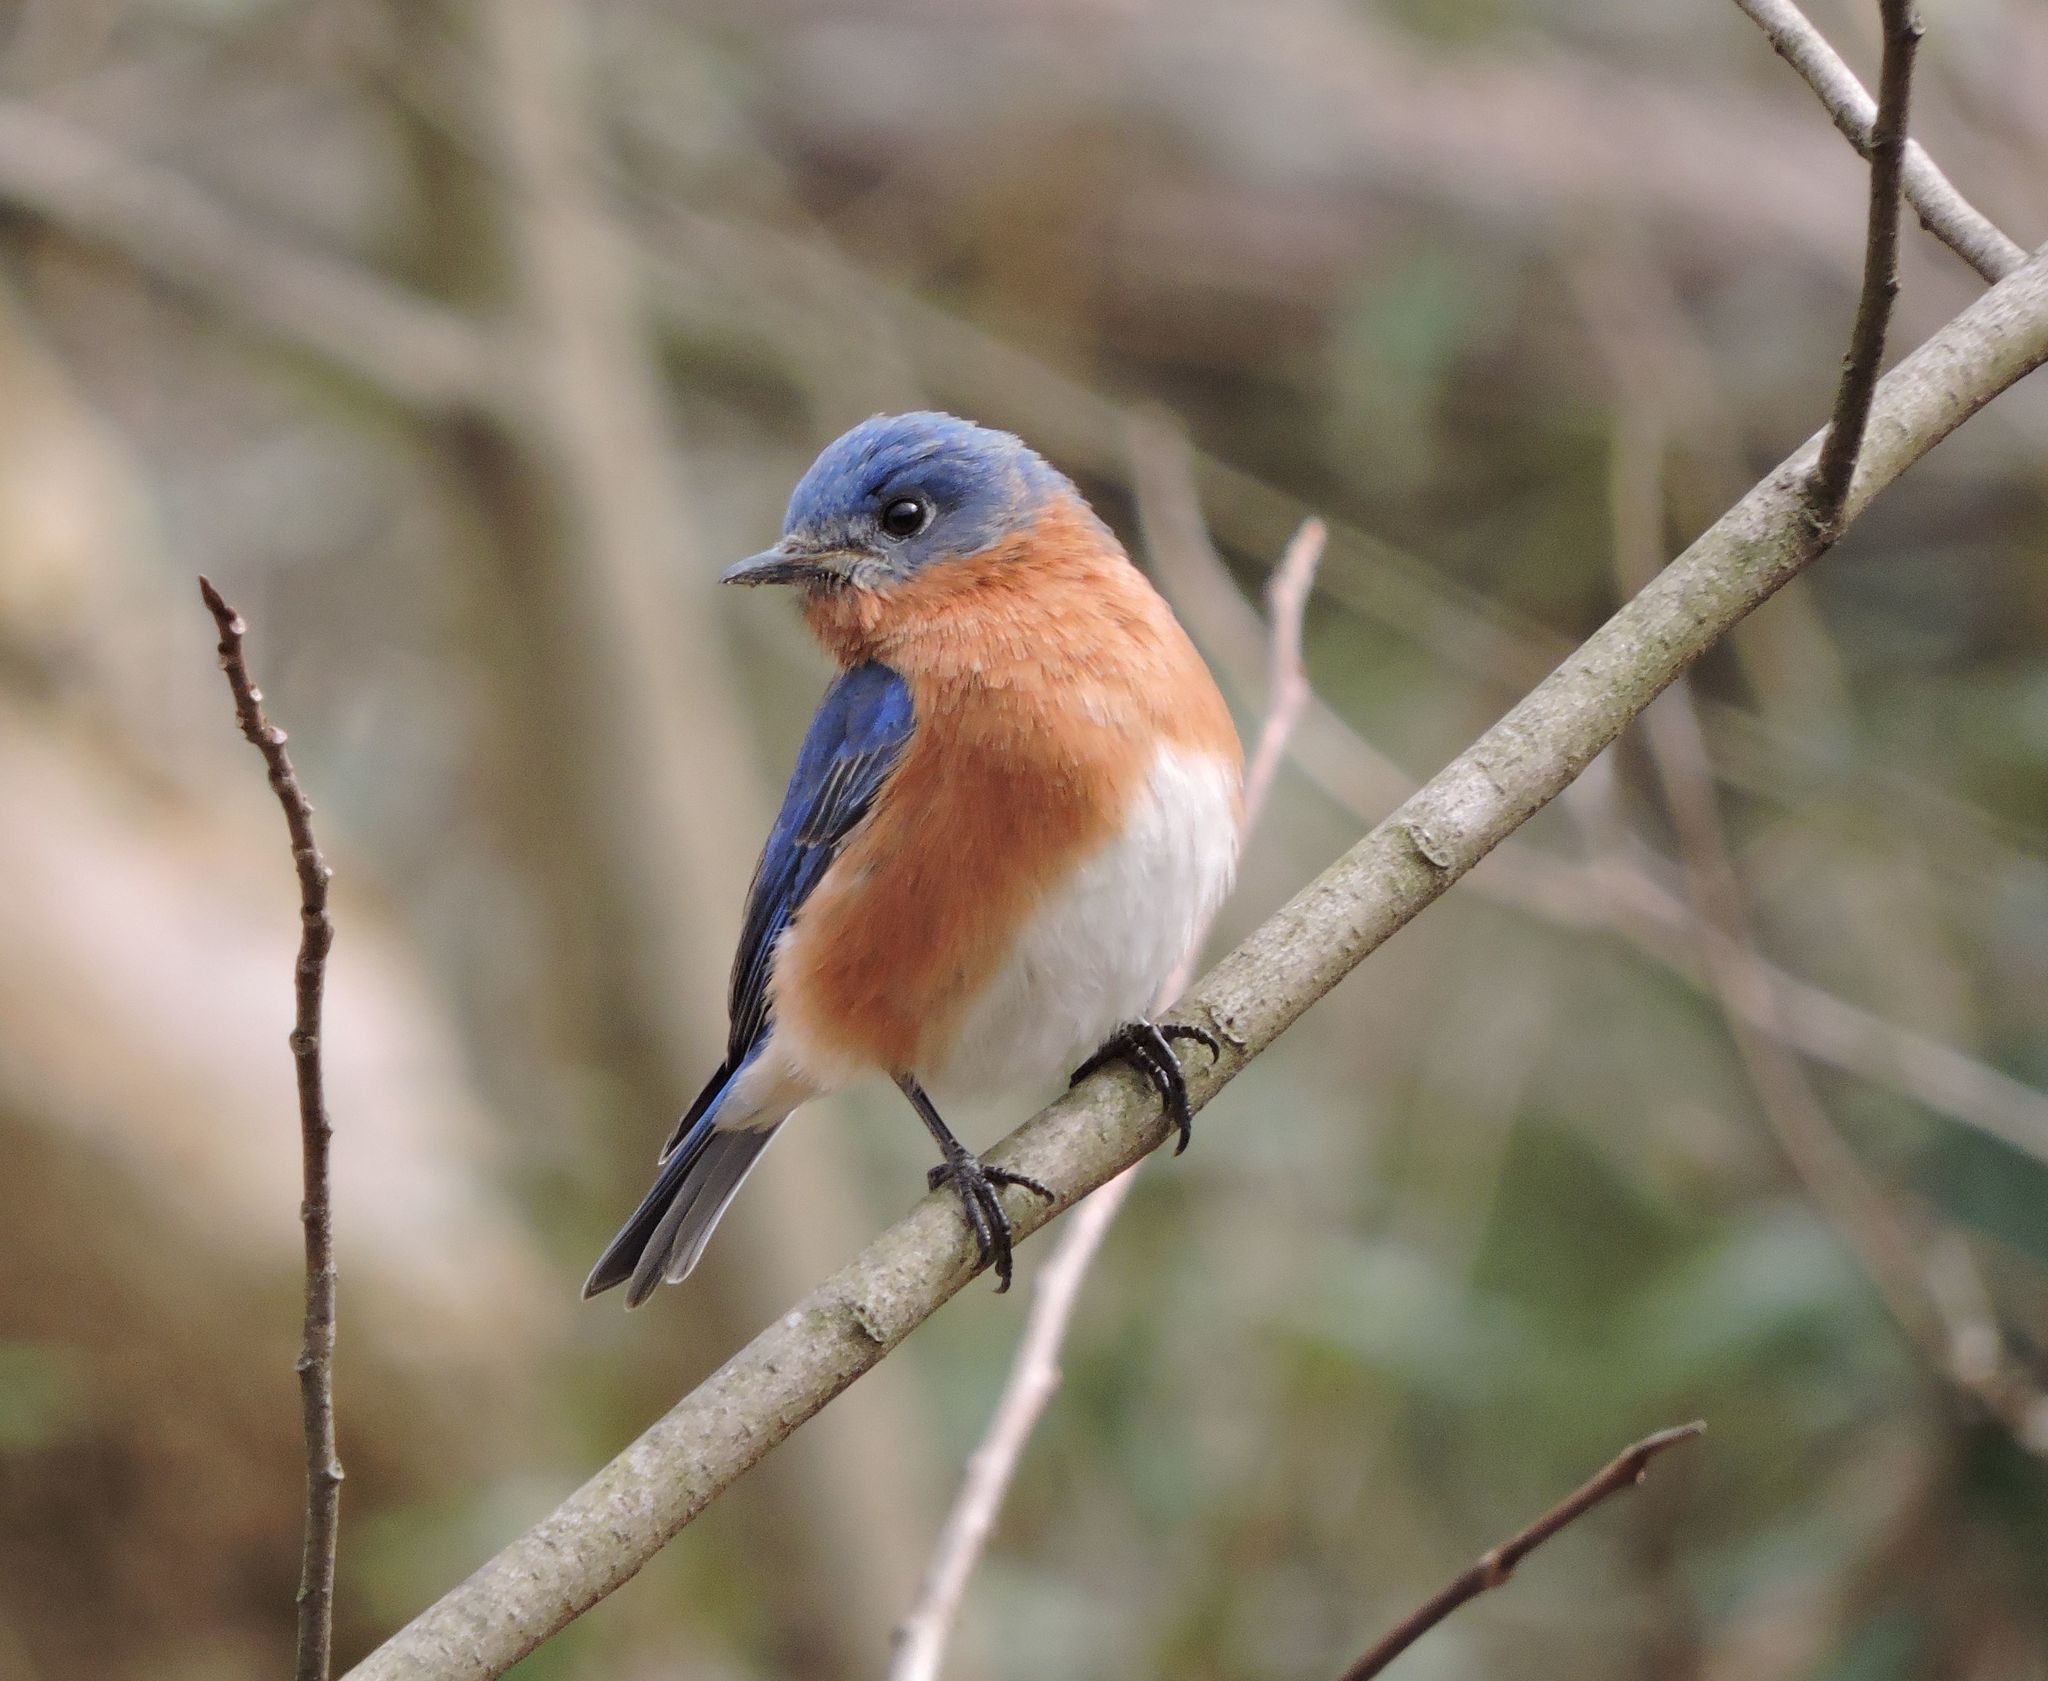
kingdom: Animalia
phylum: Chordata
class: Aves
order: Passeriformes
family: Turdidae
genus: Sialia
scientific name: Sialia sialis
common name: Eastern bluebird
